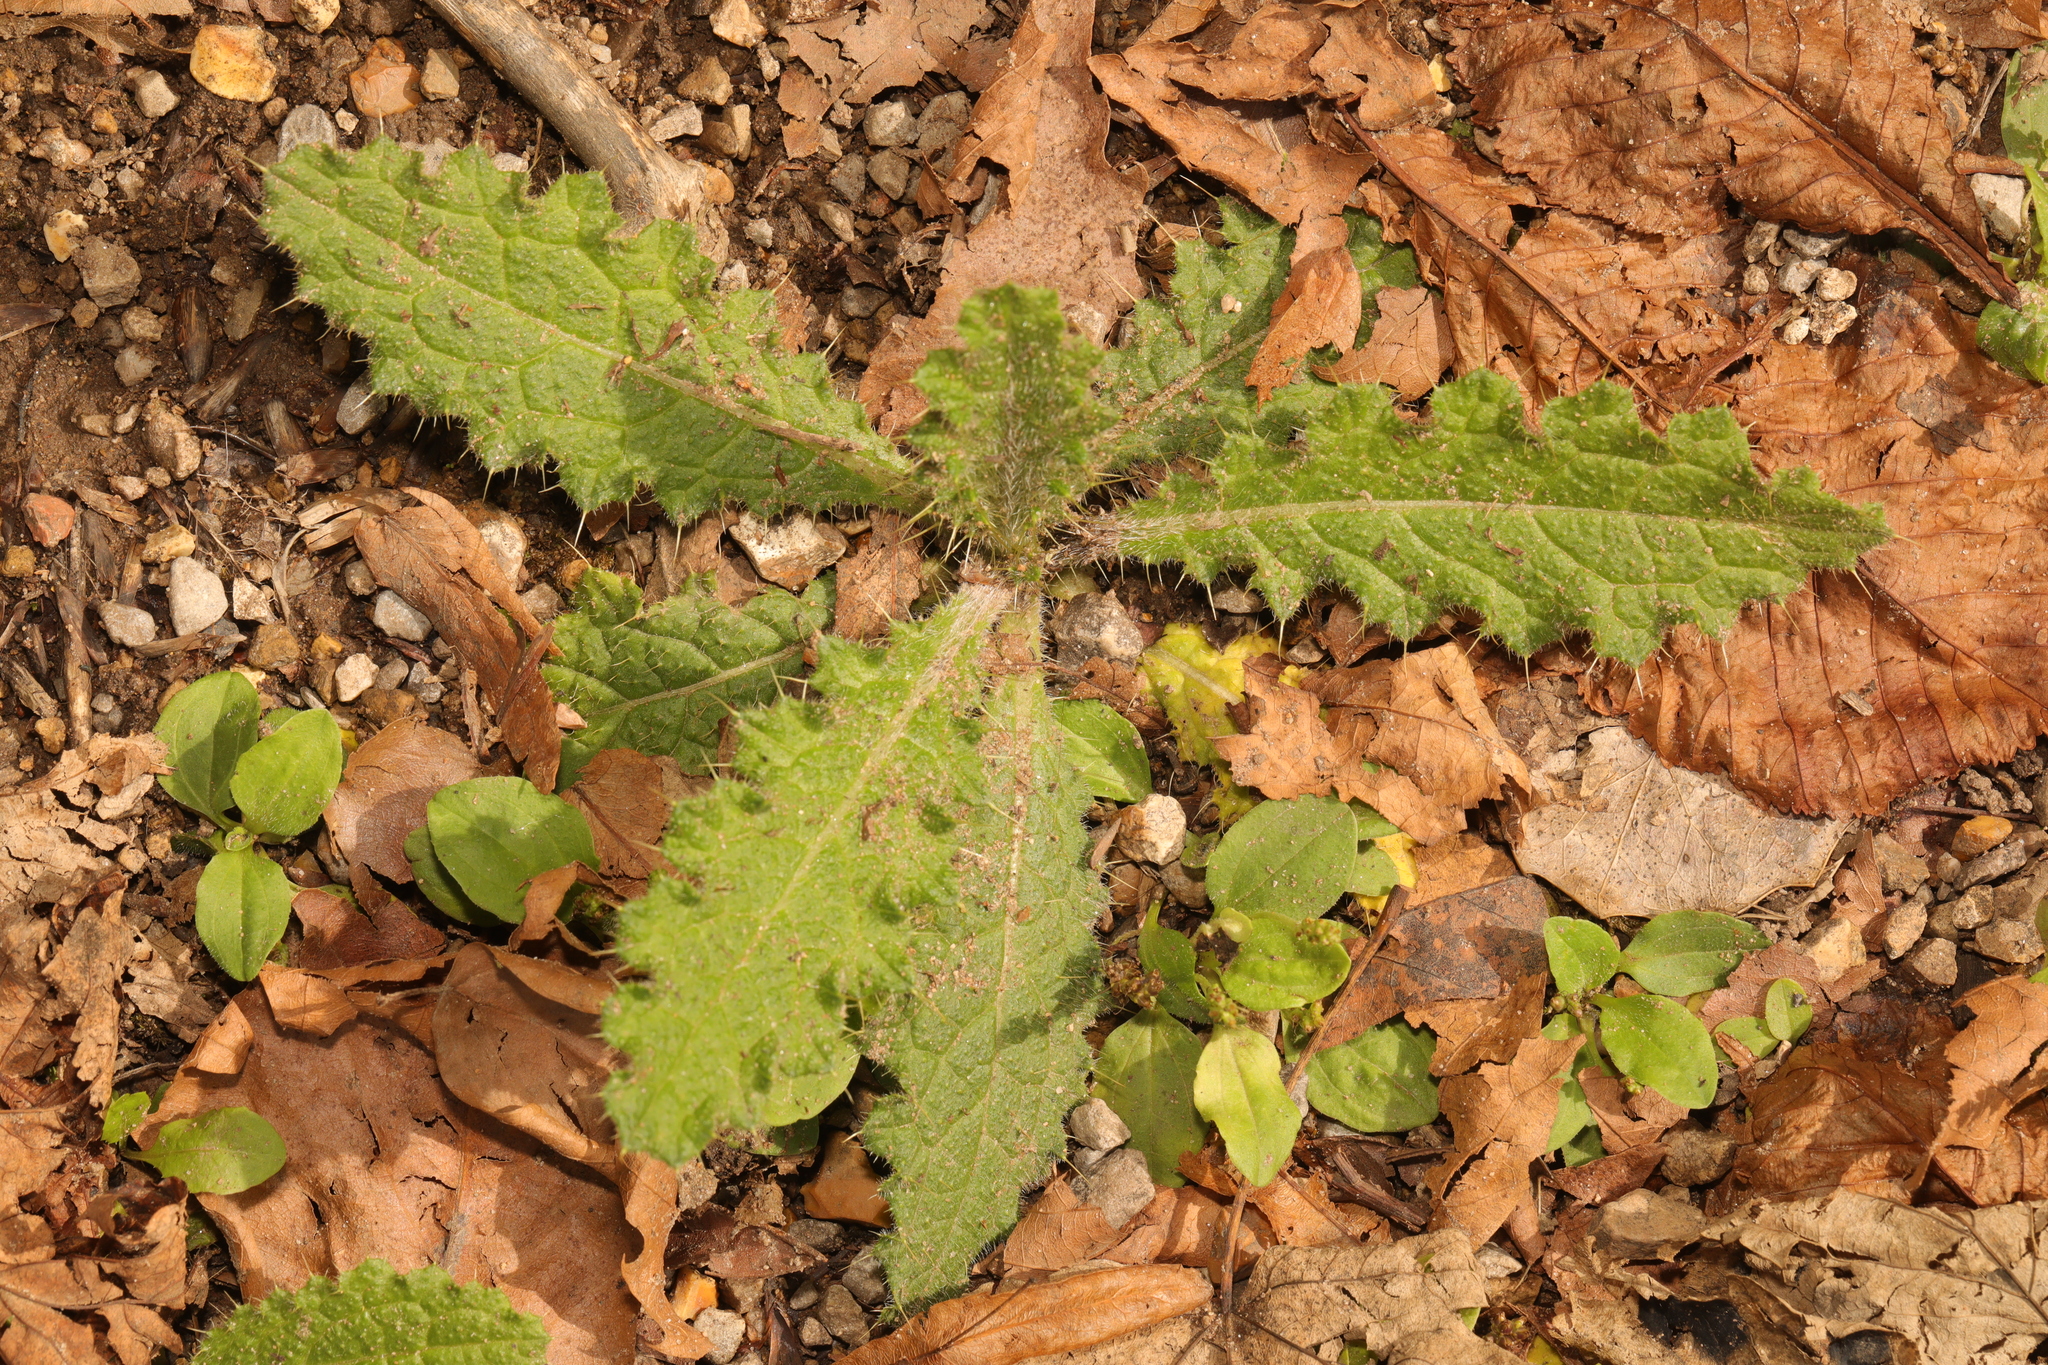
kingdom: Plantae
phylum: Tracheophyta
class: Magnoliopsida
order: Asterales
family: Asteraceae
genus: Cirsium
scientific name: Cirsium vulgare
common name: Bull thistle
